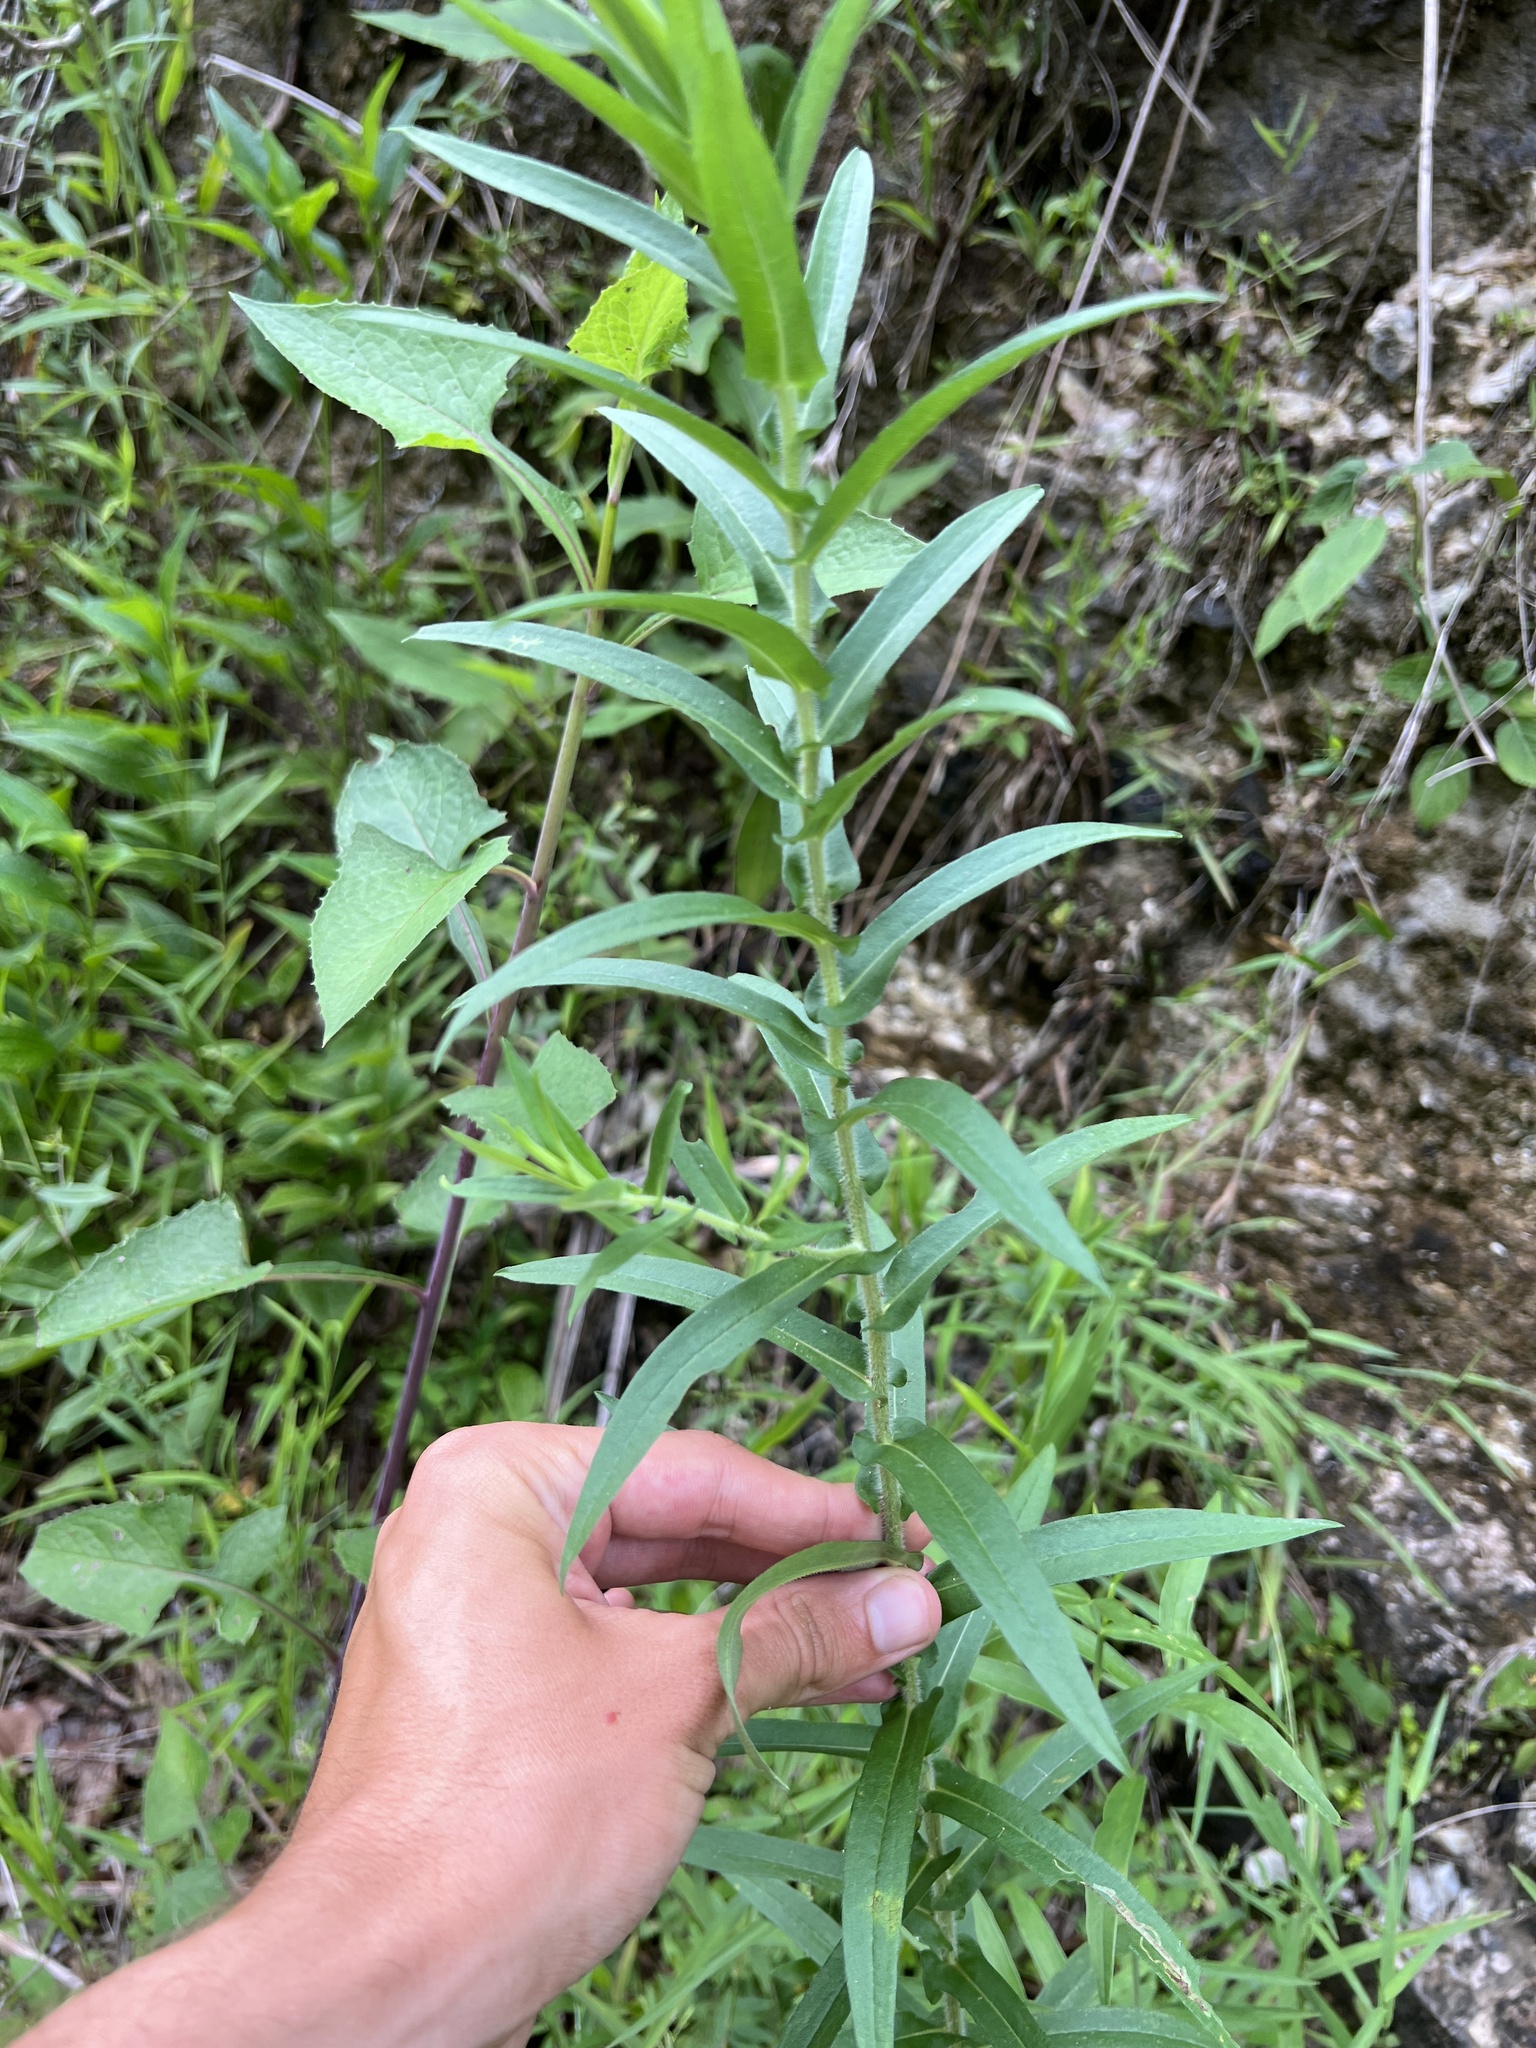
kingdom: Plantae
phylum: Tracheophyta
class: Magnoliopsida
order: Asterales
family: Asteraceae
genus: Symphyotrichum
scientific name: Symphyotrichum puniceum
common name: Bog aster
